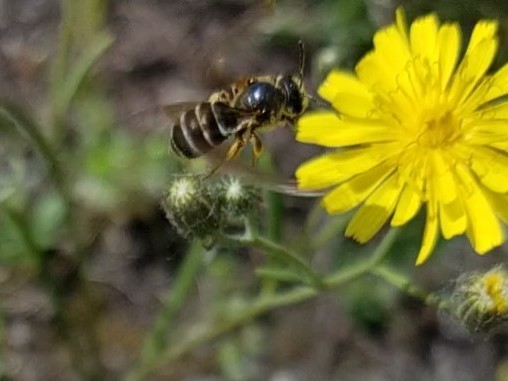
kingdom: Animalia
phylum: Arthropoda
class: Insecta
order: Hymenoptera
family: Halictidae
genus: Halictus
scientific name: Halictus rubicundus
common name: Orange-legged furrow bee
